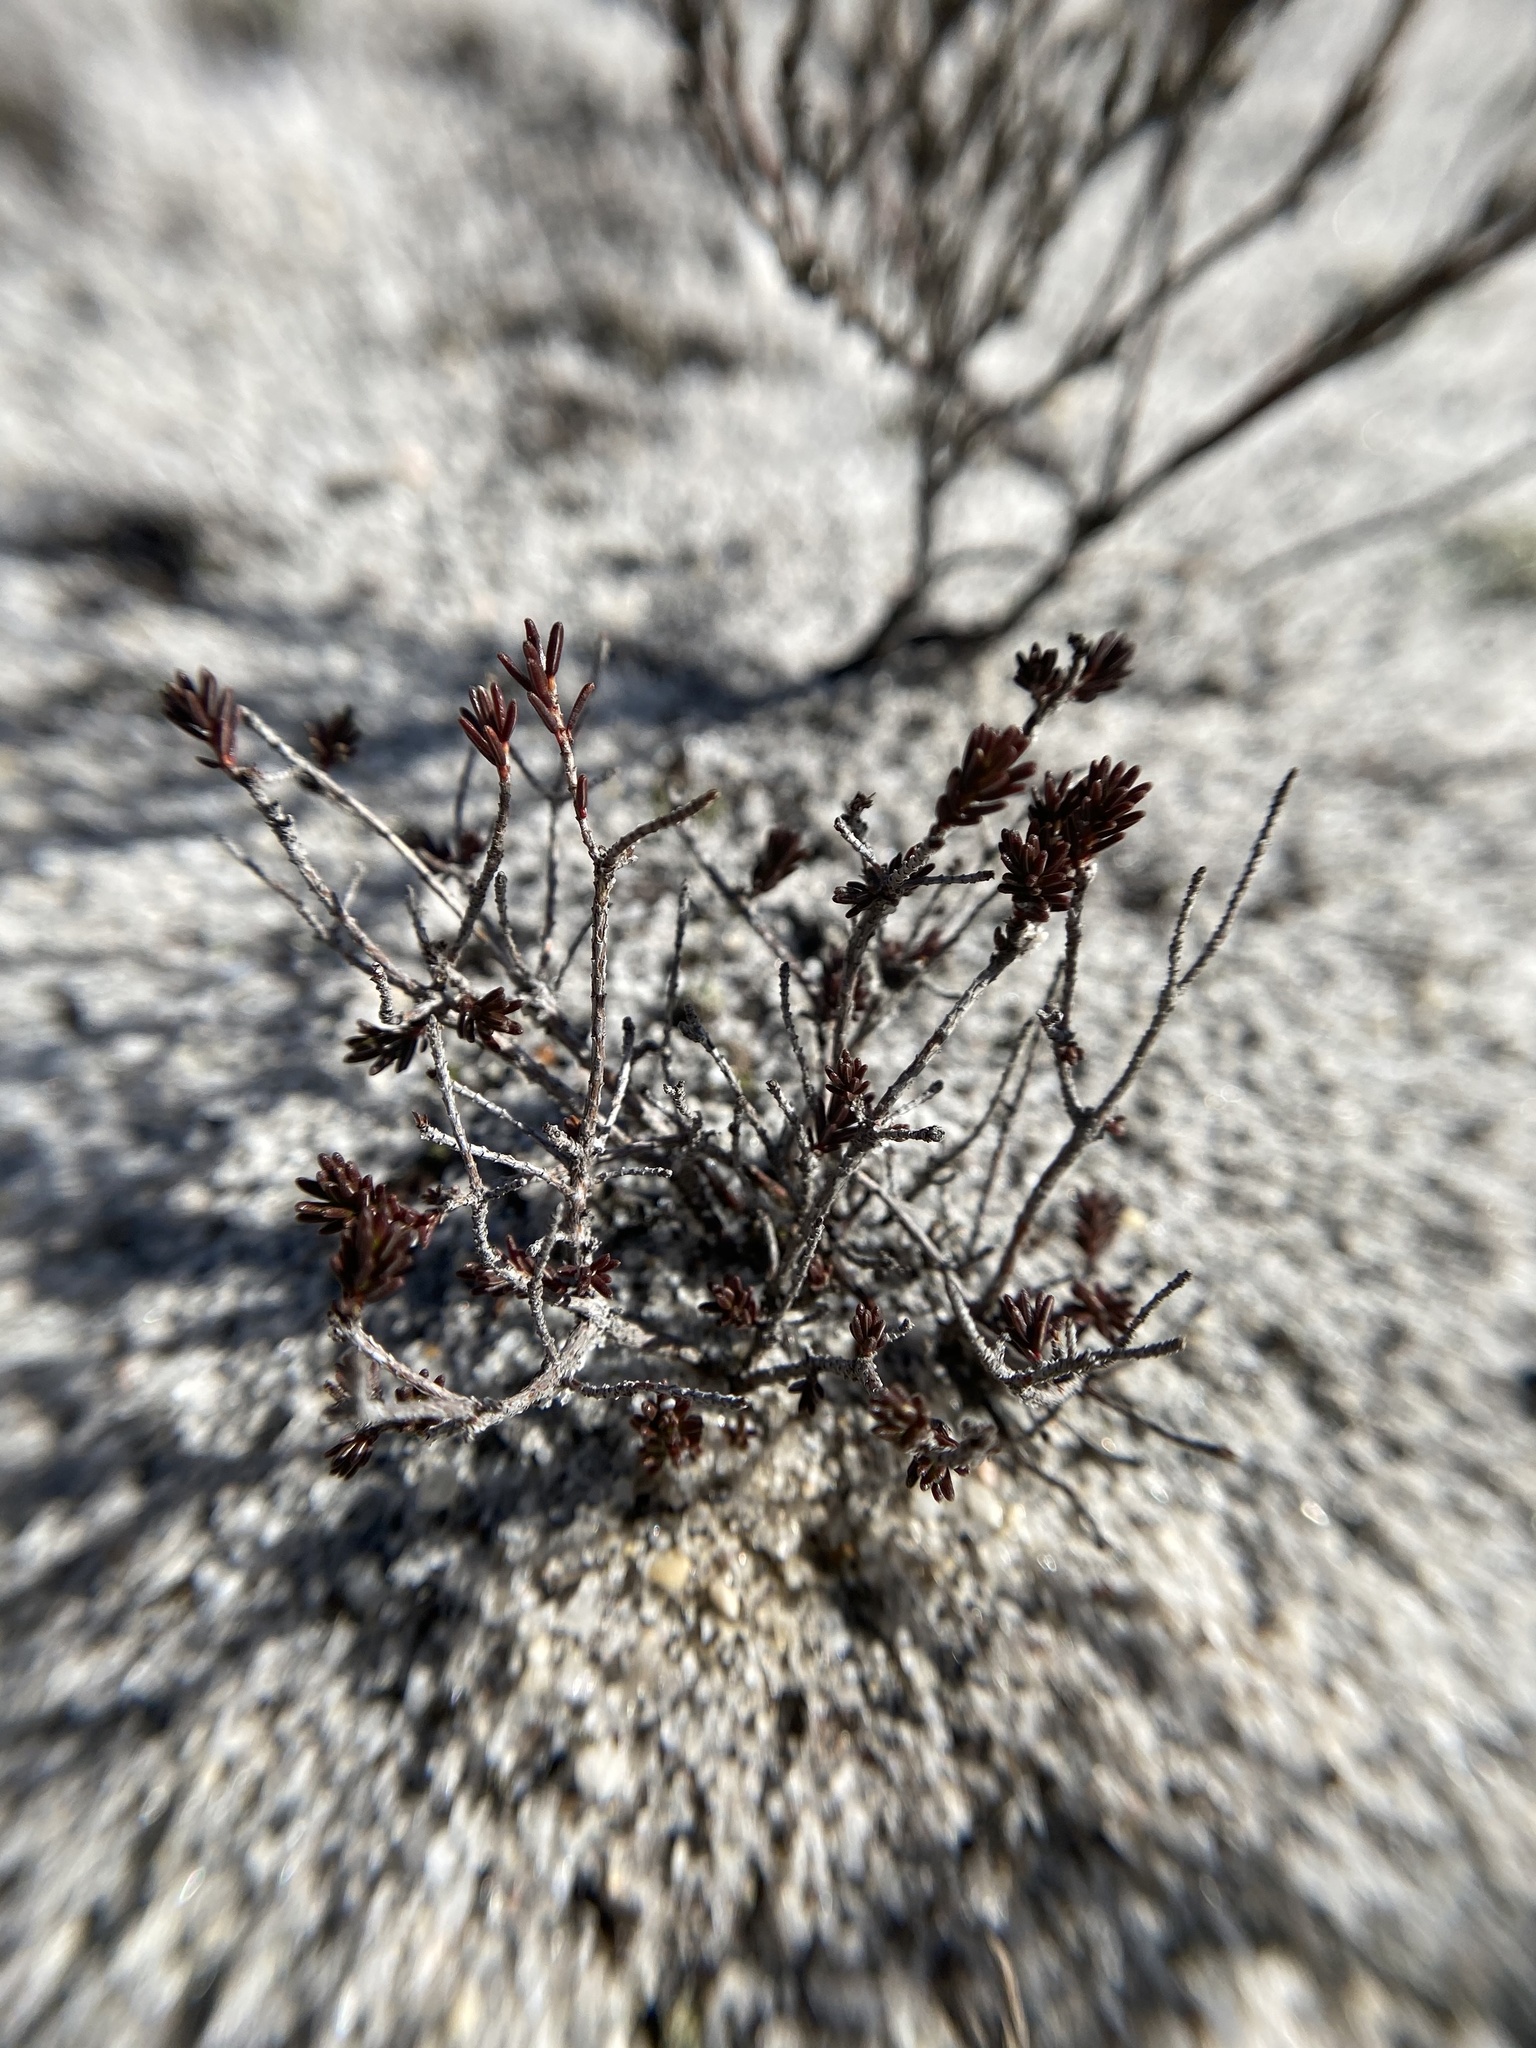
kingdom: Plantae
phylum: Tracheophyta
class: Magnoliopsida
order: Ericales
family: Ericaceae
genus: Corema
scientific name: Corema conradii
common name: Broom-crowberry
